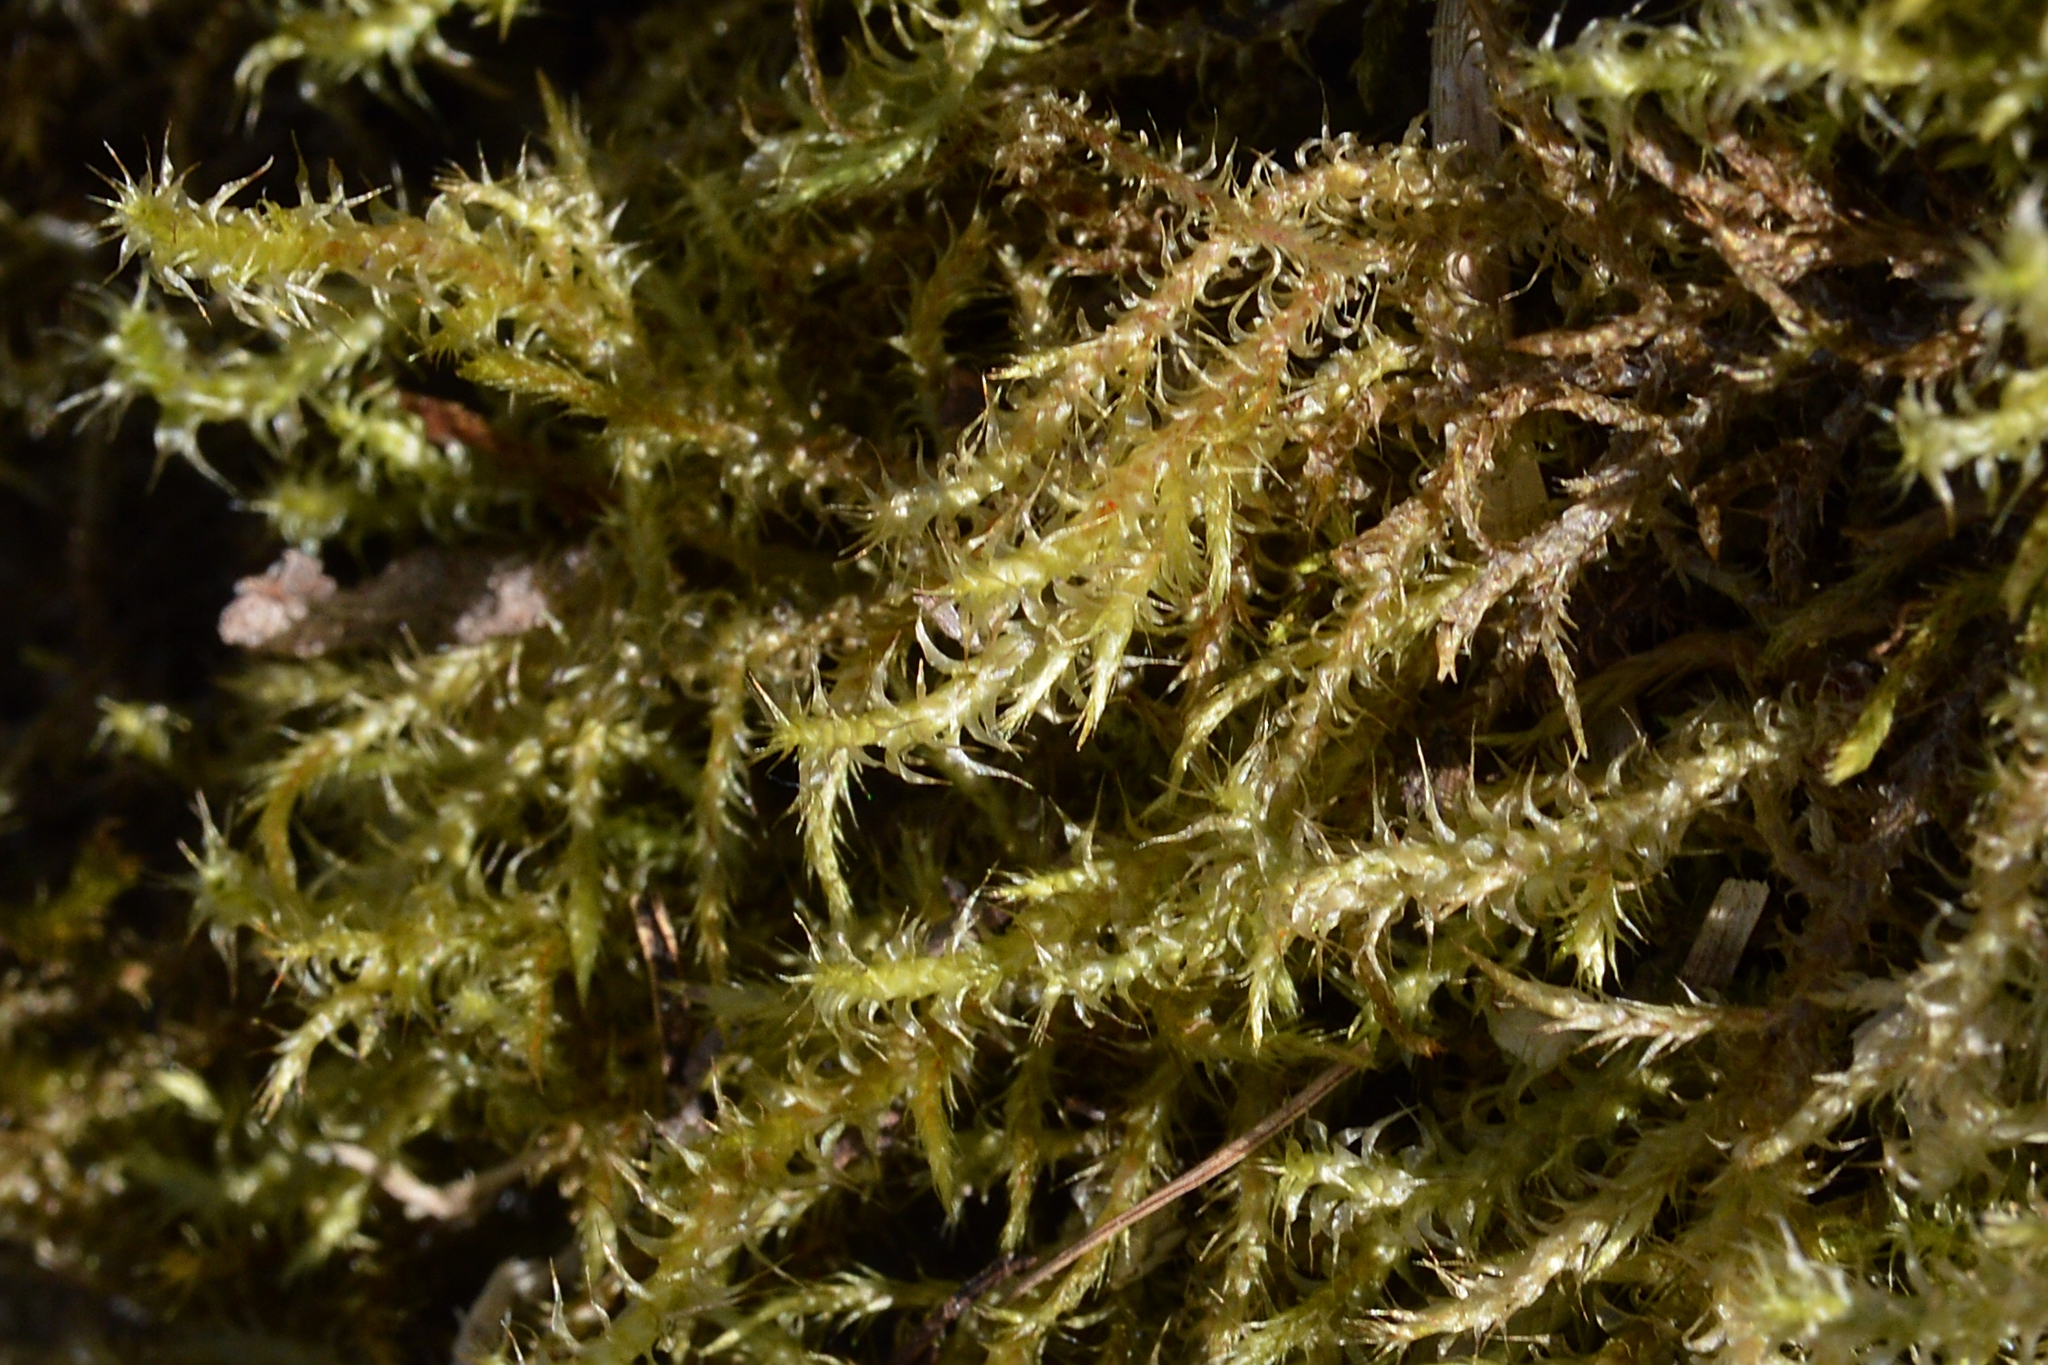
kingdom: Plantae
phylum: Bryophyta
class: Bryopsida
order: Hypnales
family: Hylocomiaceae
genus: Rhytidiadelphus
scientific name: Rhytidiadelphus squarrosus
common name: Springy turf-moss
